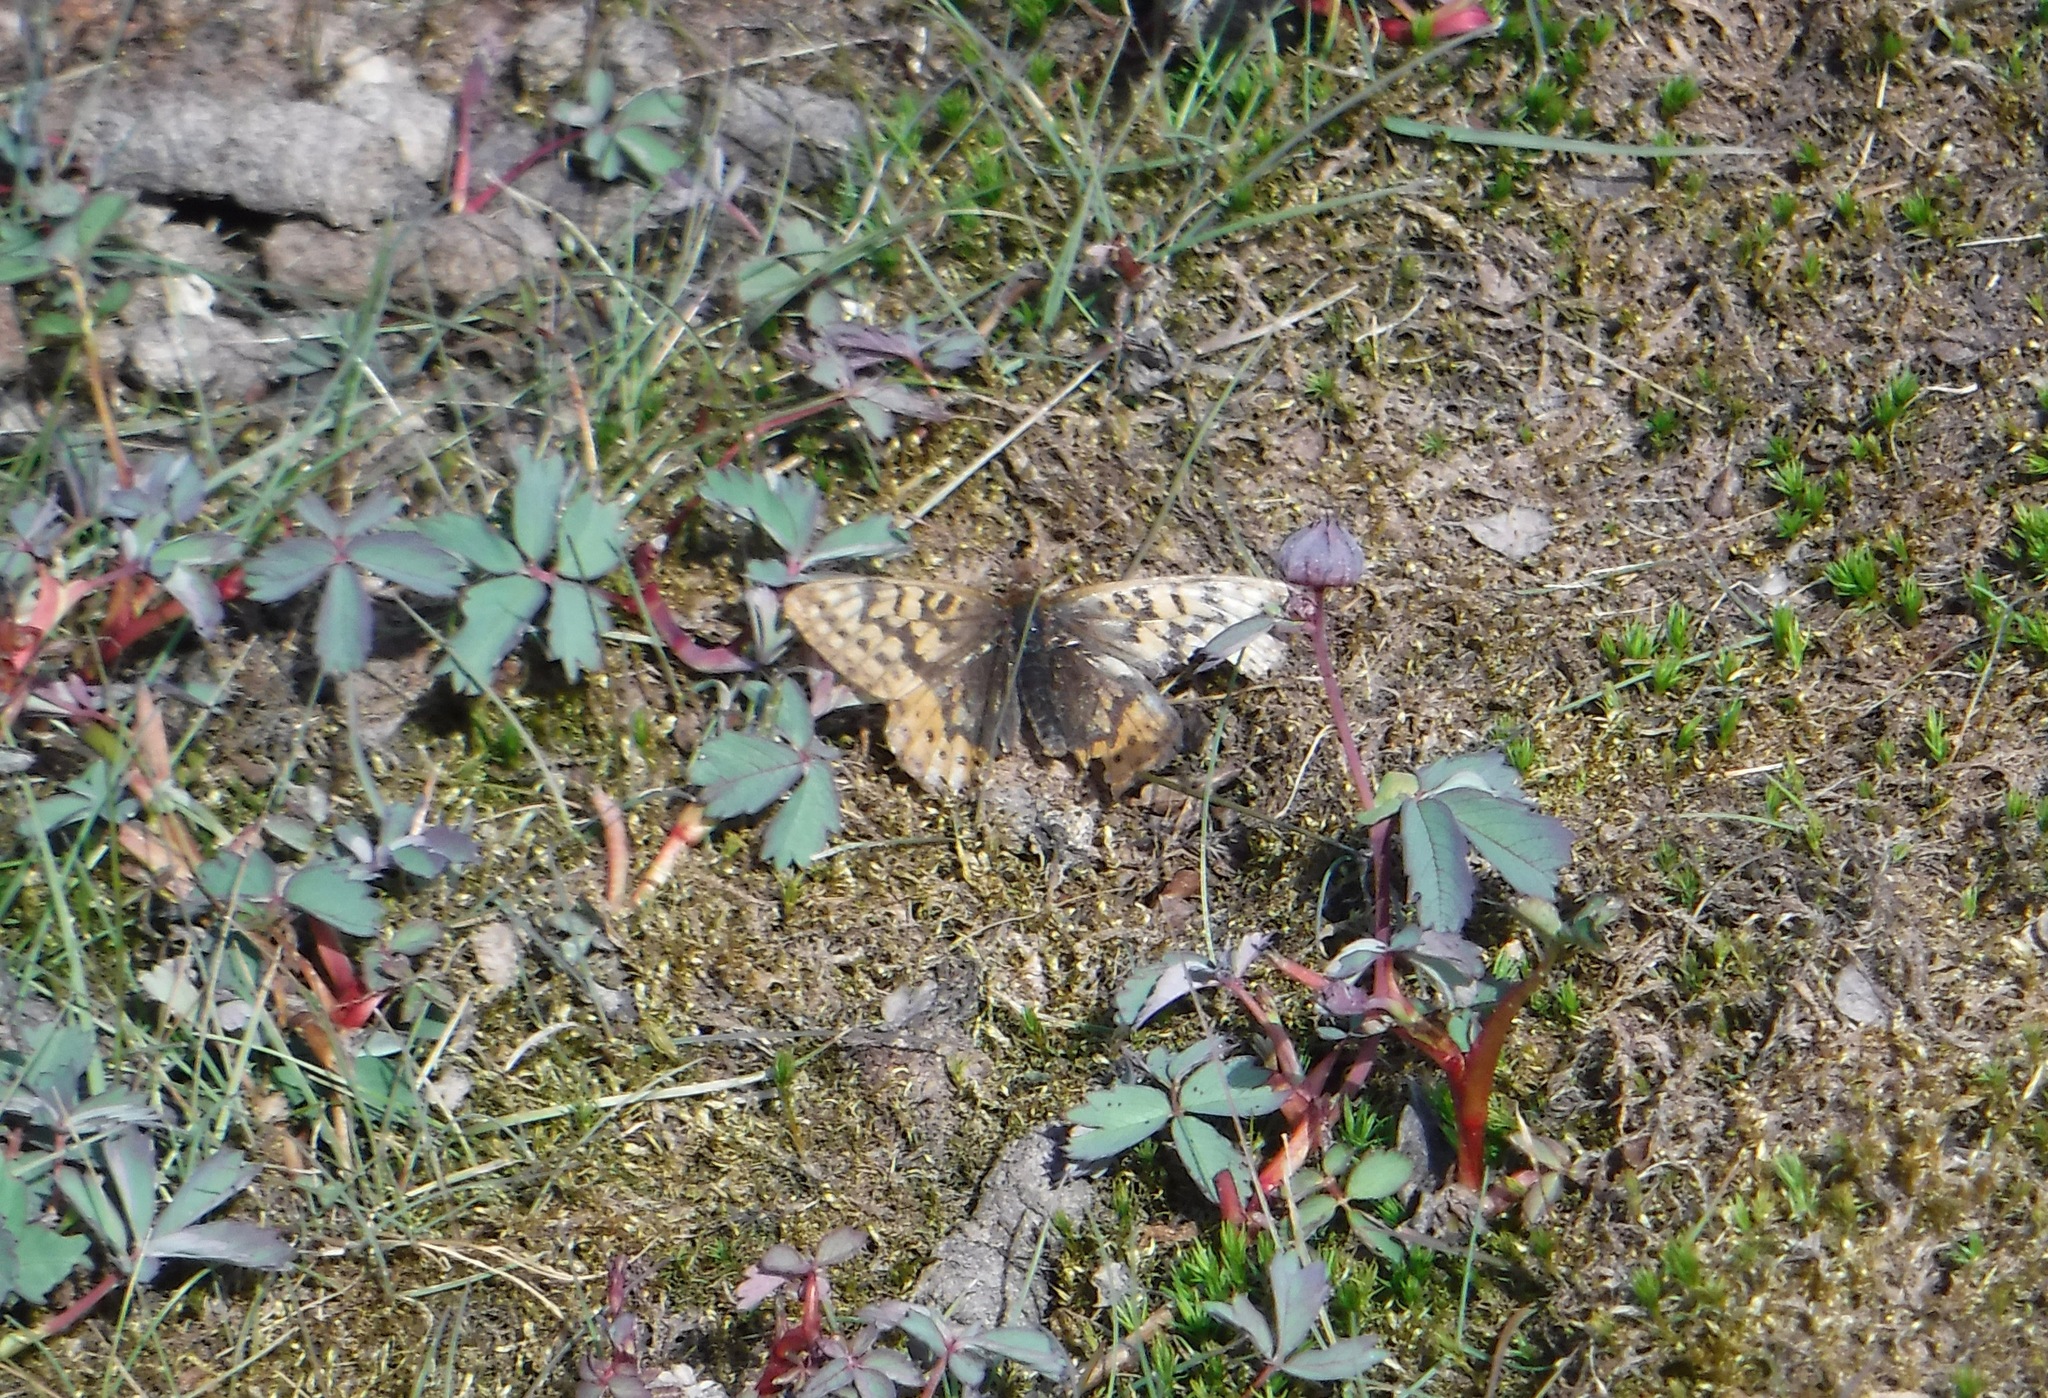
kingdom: Animalia
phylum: Arthropoda
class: Insecta
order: Lepidoptera
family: Nymphalidae
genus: Boloria
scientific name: Boloria frigga
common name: Frigga's fritillary
